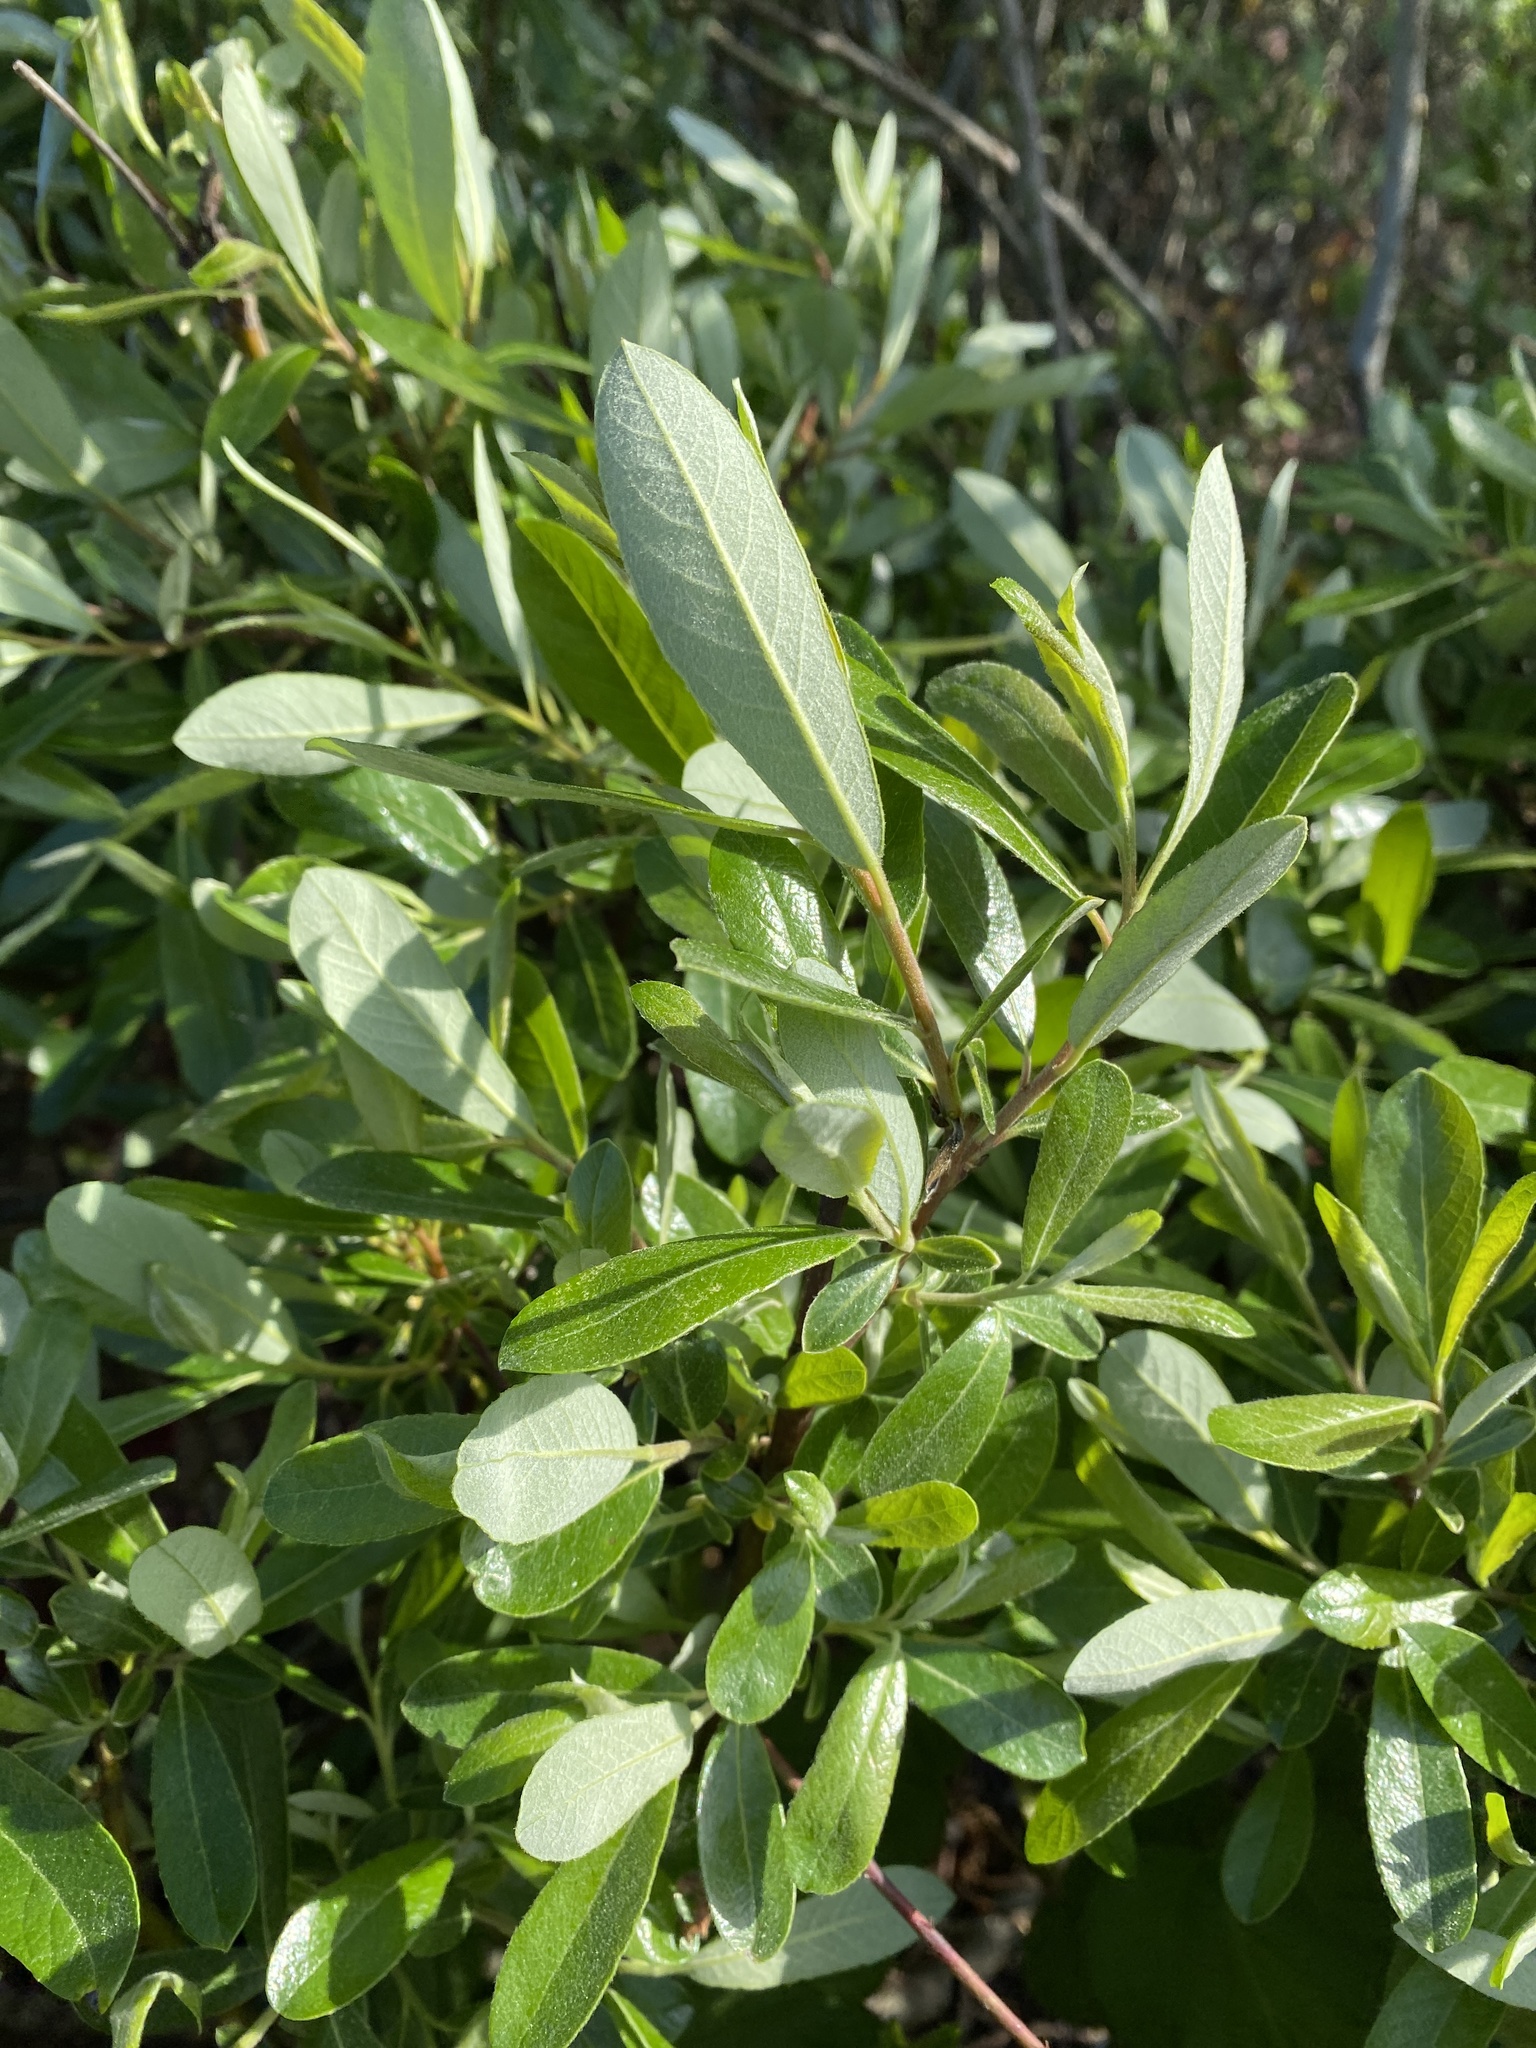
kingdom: Plantae
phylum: Tracheophyta
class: Magnoliopsida
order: Malpighiales
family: Salicaceae
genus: Salix
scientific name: Salix lasiolepis
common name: Arroyo willow
